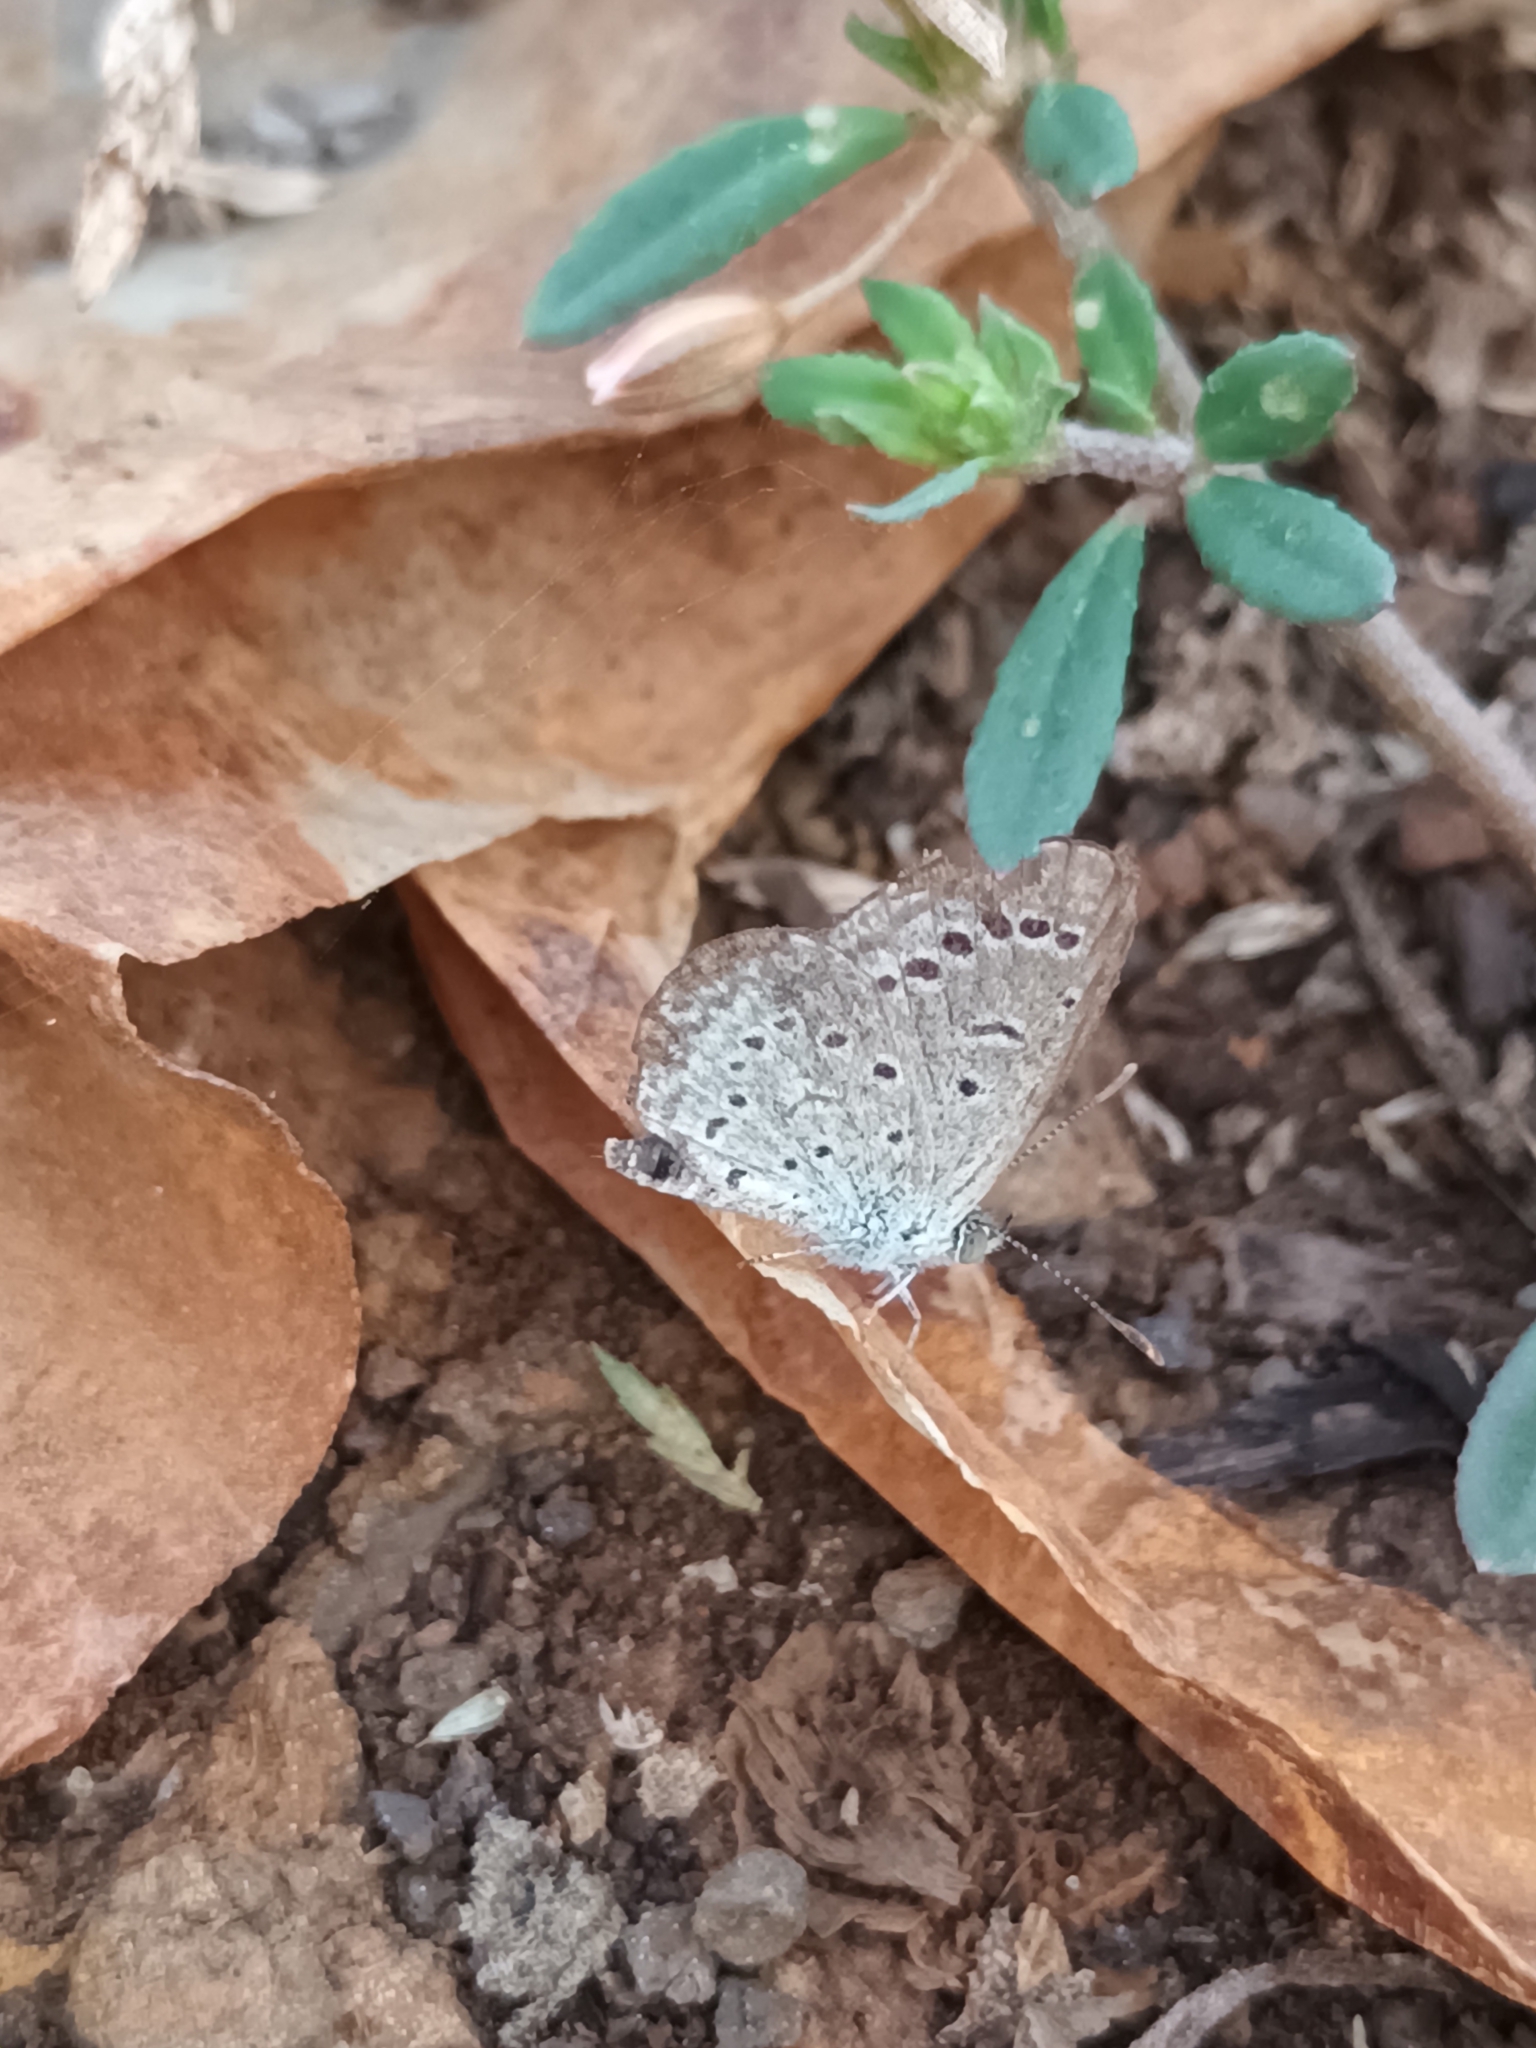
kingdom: Animalia
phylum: Arthropoda
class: Insecta
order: Lepidoptera
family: Lycaenidae
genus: Zizeeria
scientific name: Zizeeria karsandra
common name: Dark grass blue
